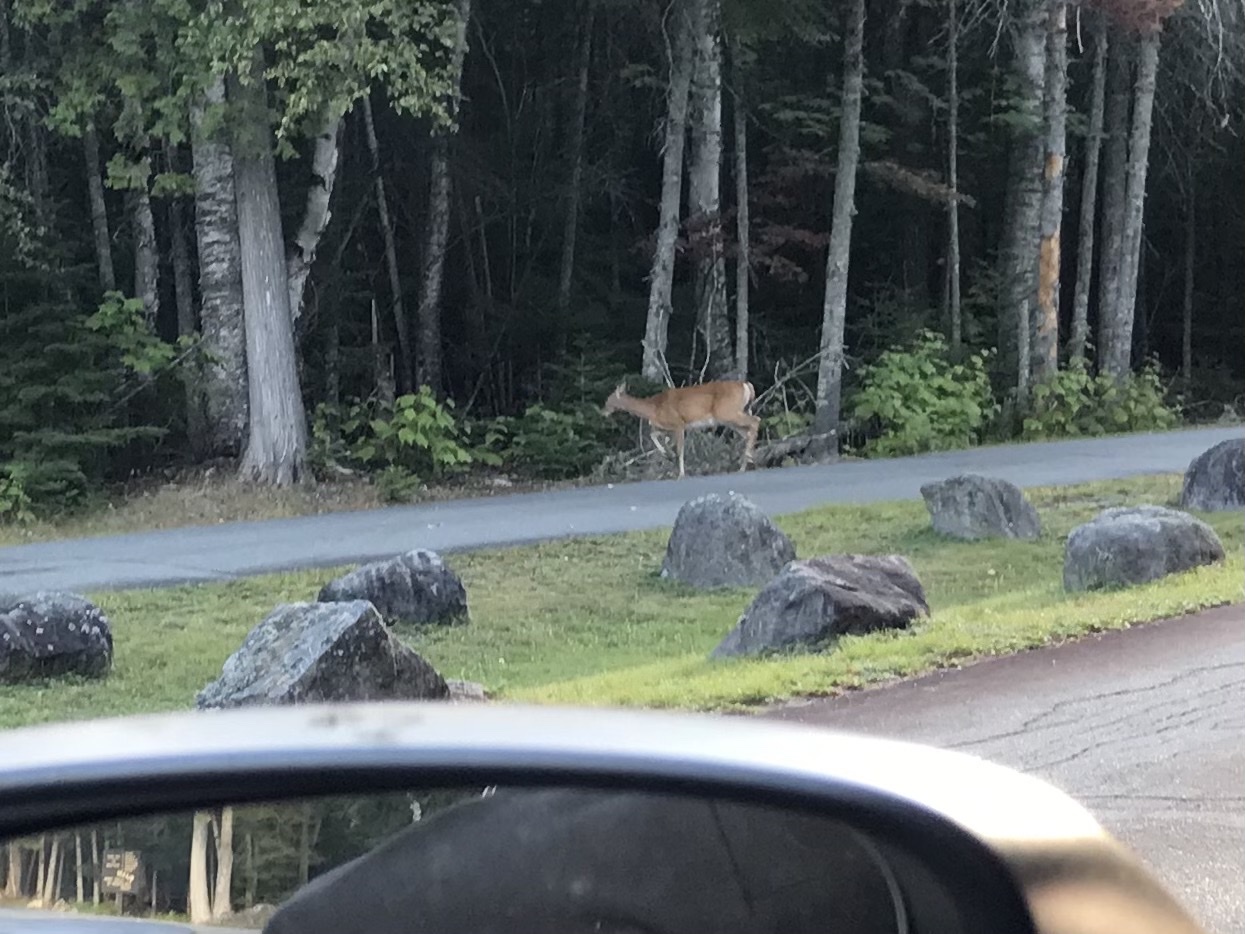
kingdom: Animalia
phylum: Chordata
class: Mammalia
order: Artiodactyla
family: Cervidae
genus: Odocoileus
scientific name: Odocoileus virginianus
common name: White-tailed deer
